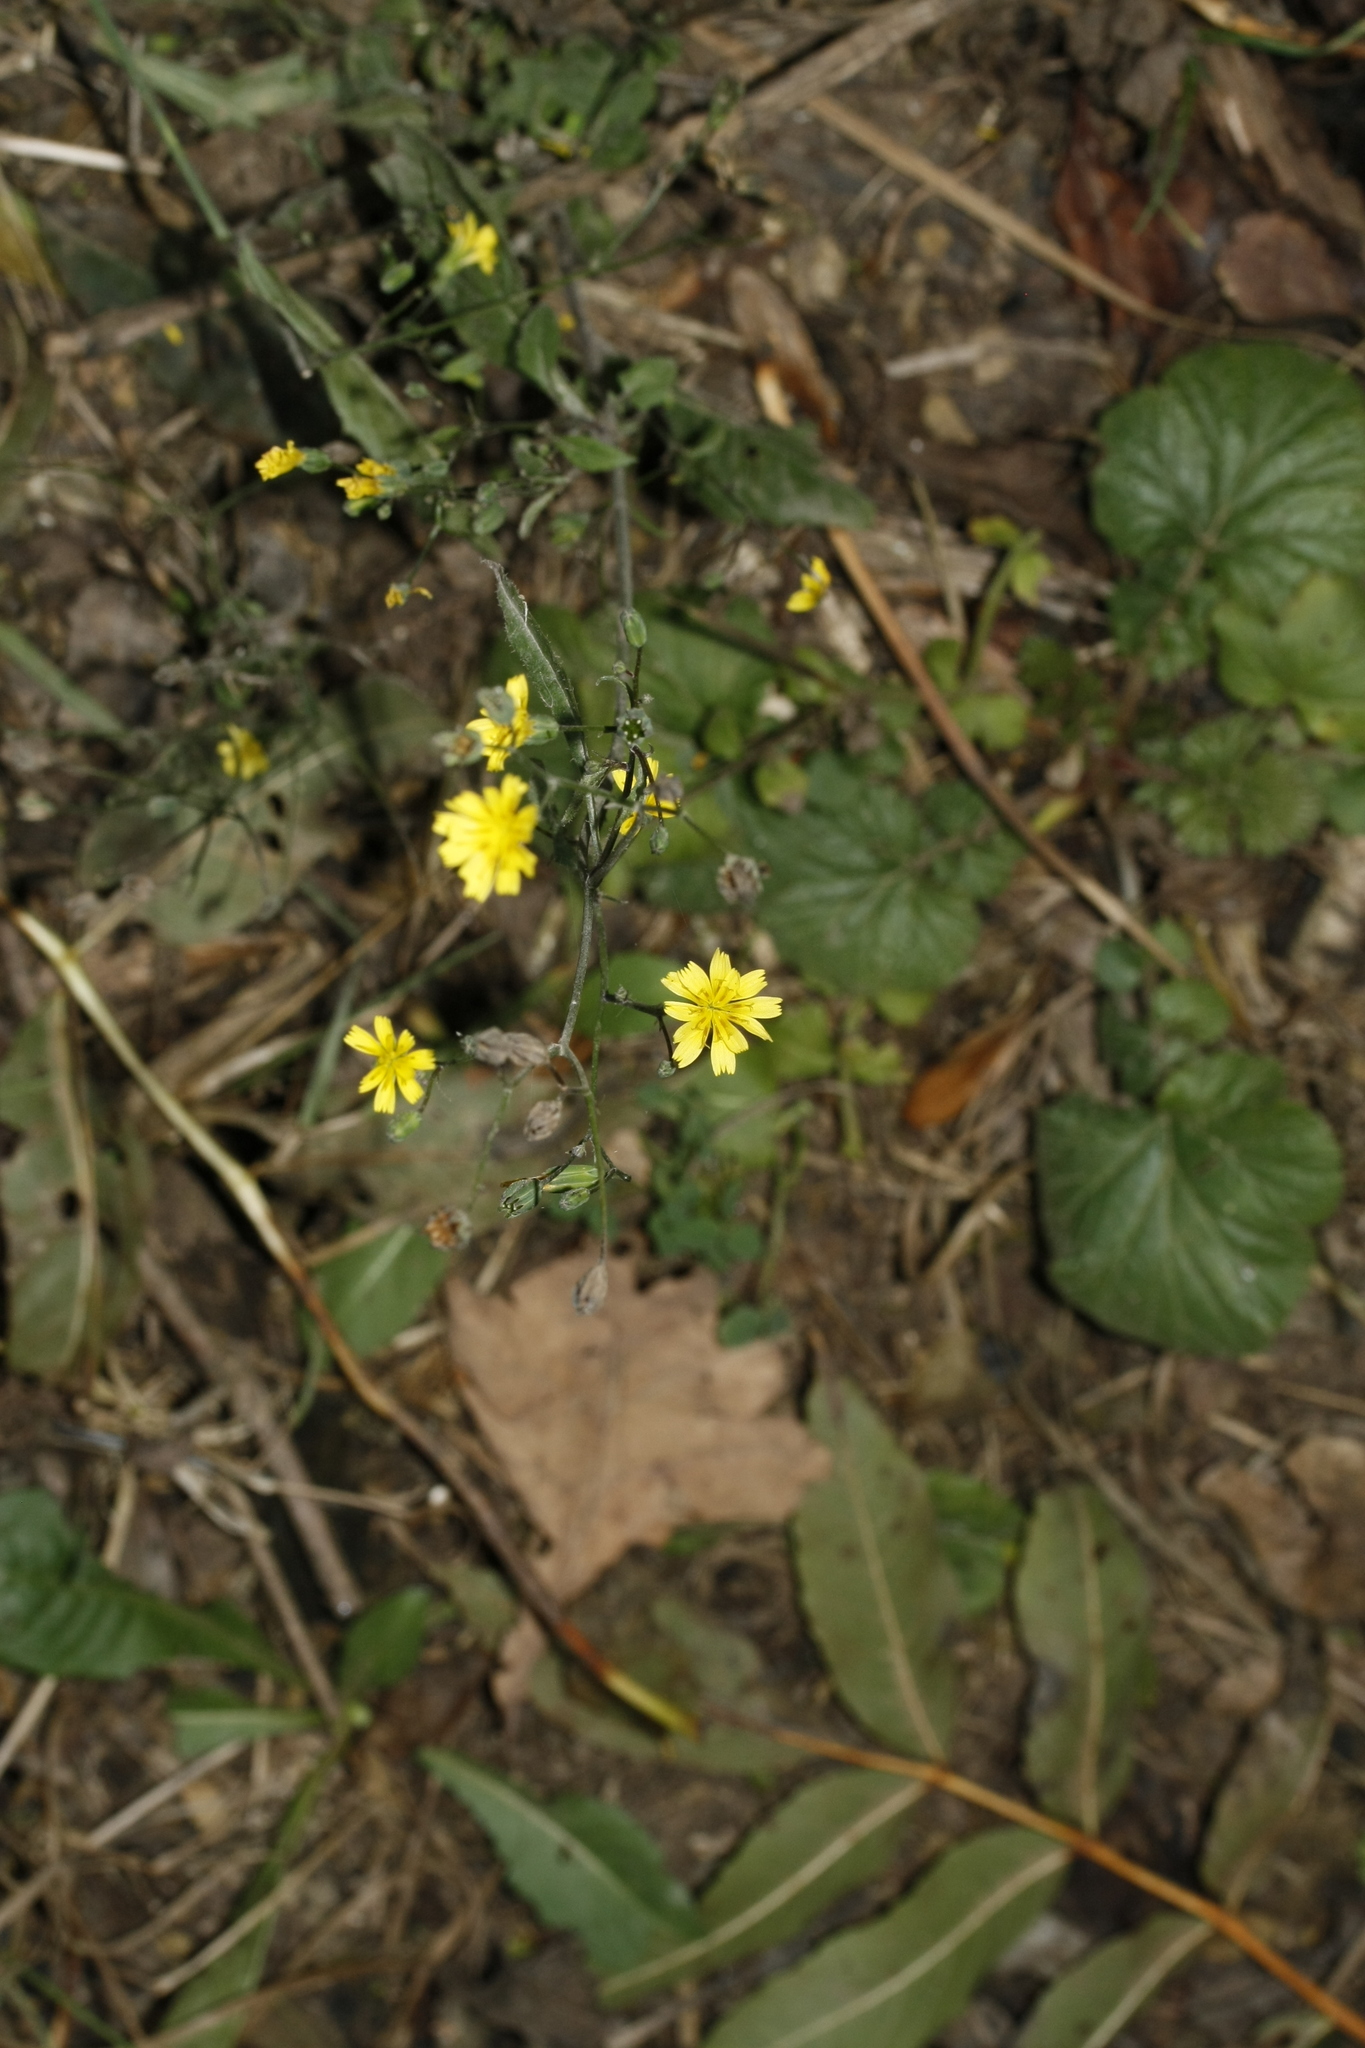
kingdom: Plantae
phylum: Tracheophyta
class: Magnoliopsida
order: Asterales
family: Asteraceae
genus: Lapsana
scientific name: Lapsana communis
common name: Nipplewort
